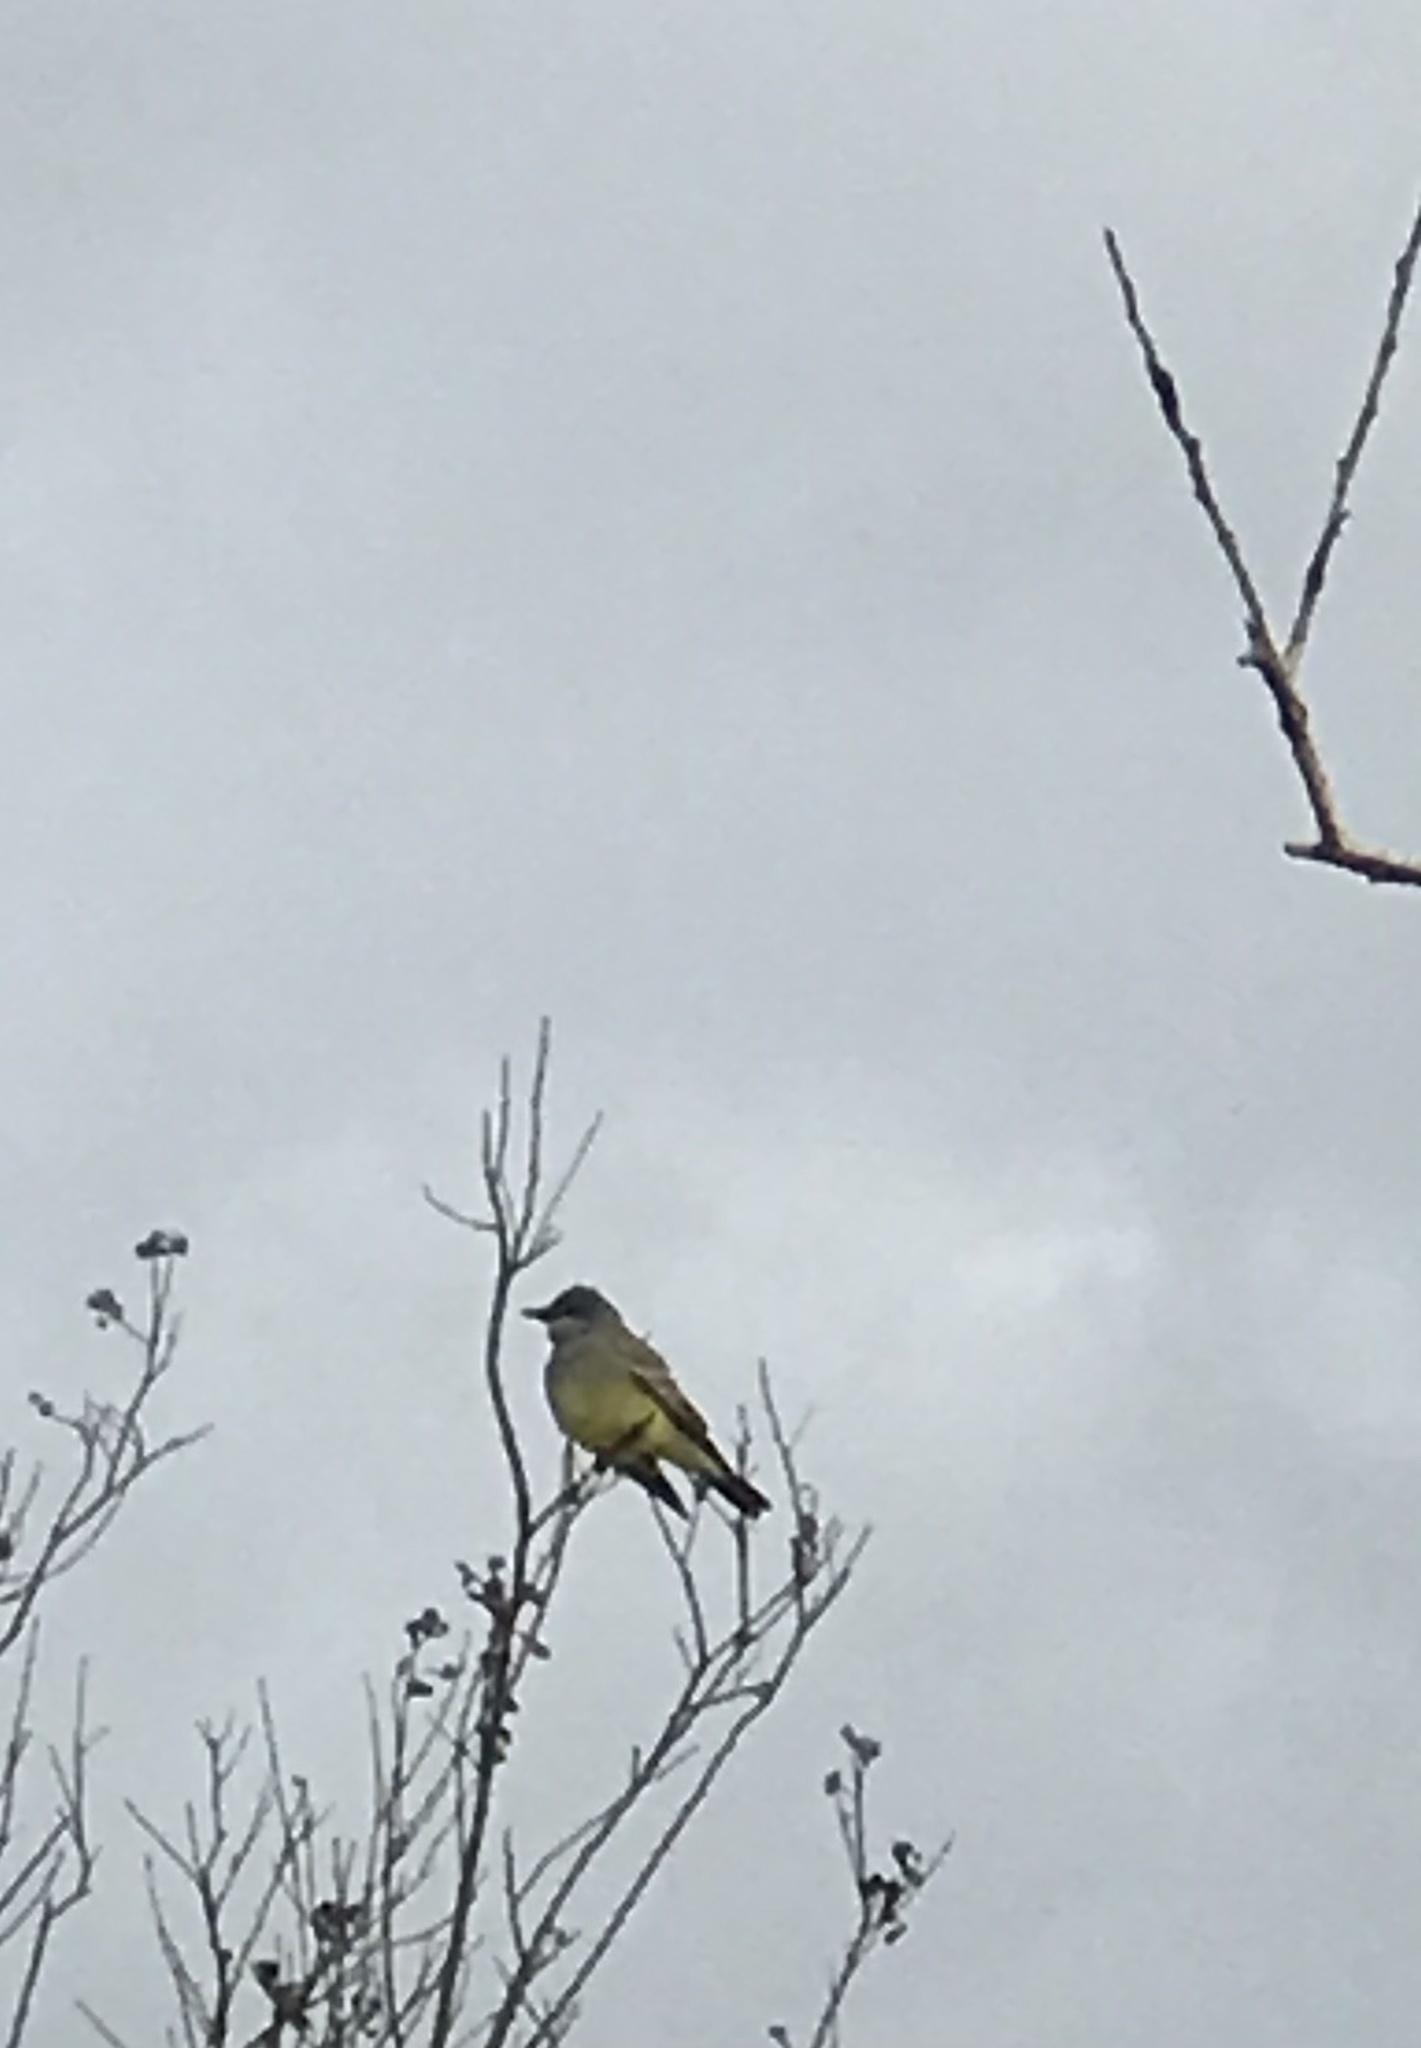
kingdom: Animalia
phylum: Chordata
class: Aves
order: Passeriformes
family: Tyrannidae
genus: Tyrannus
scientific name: Tyrannus vociferans
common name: Cassin's kingbird
